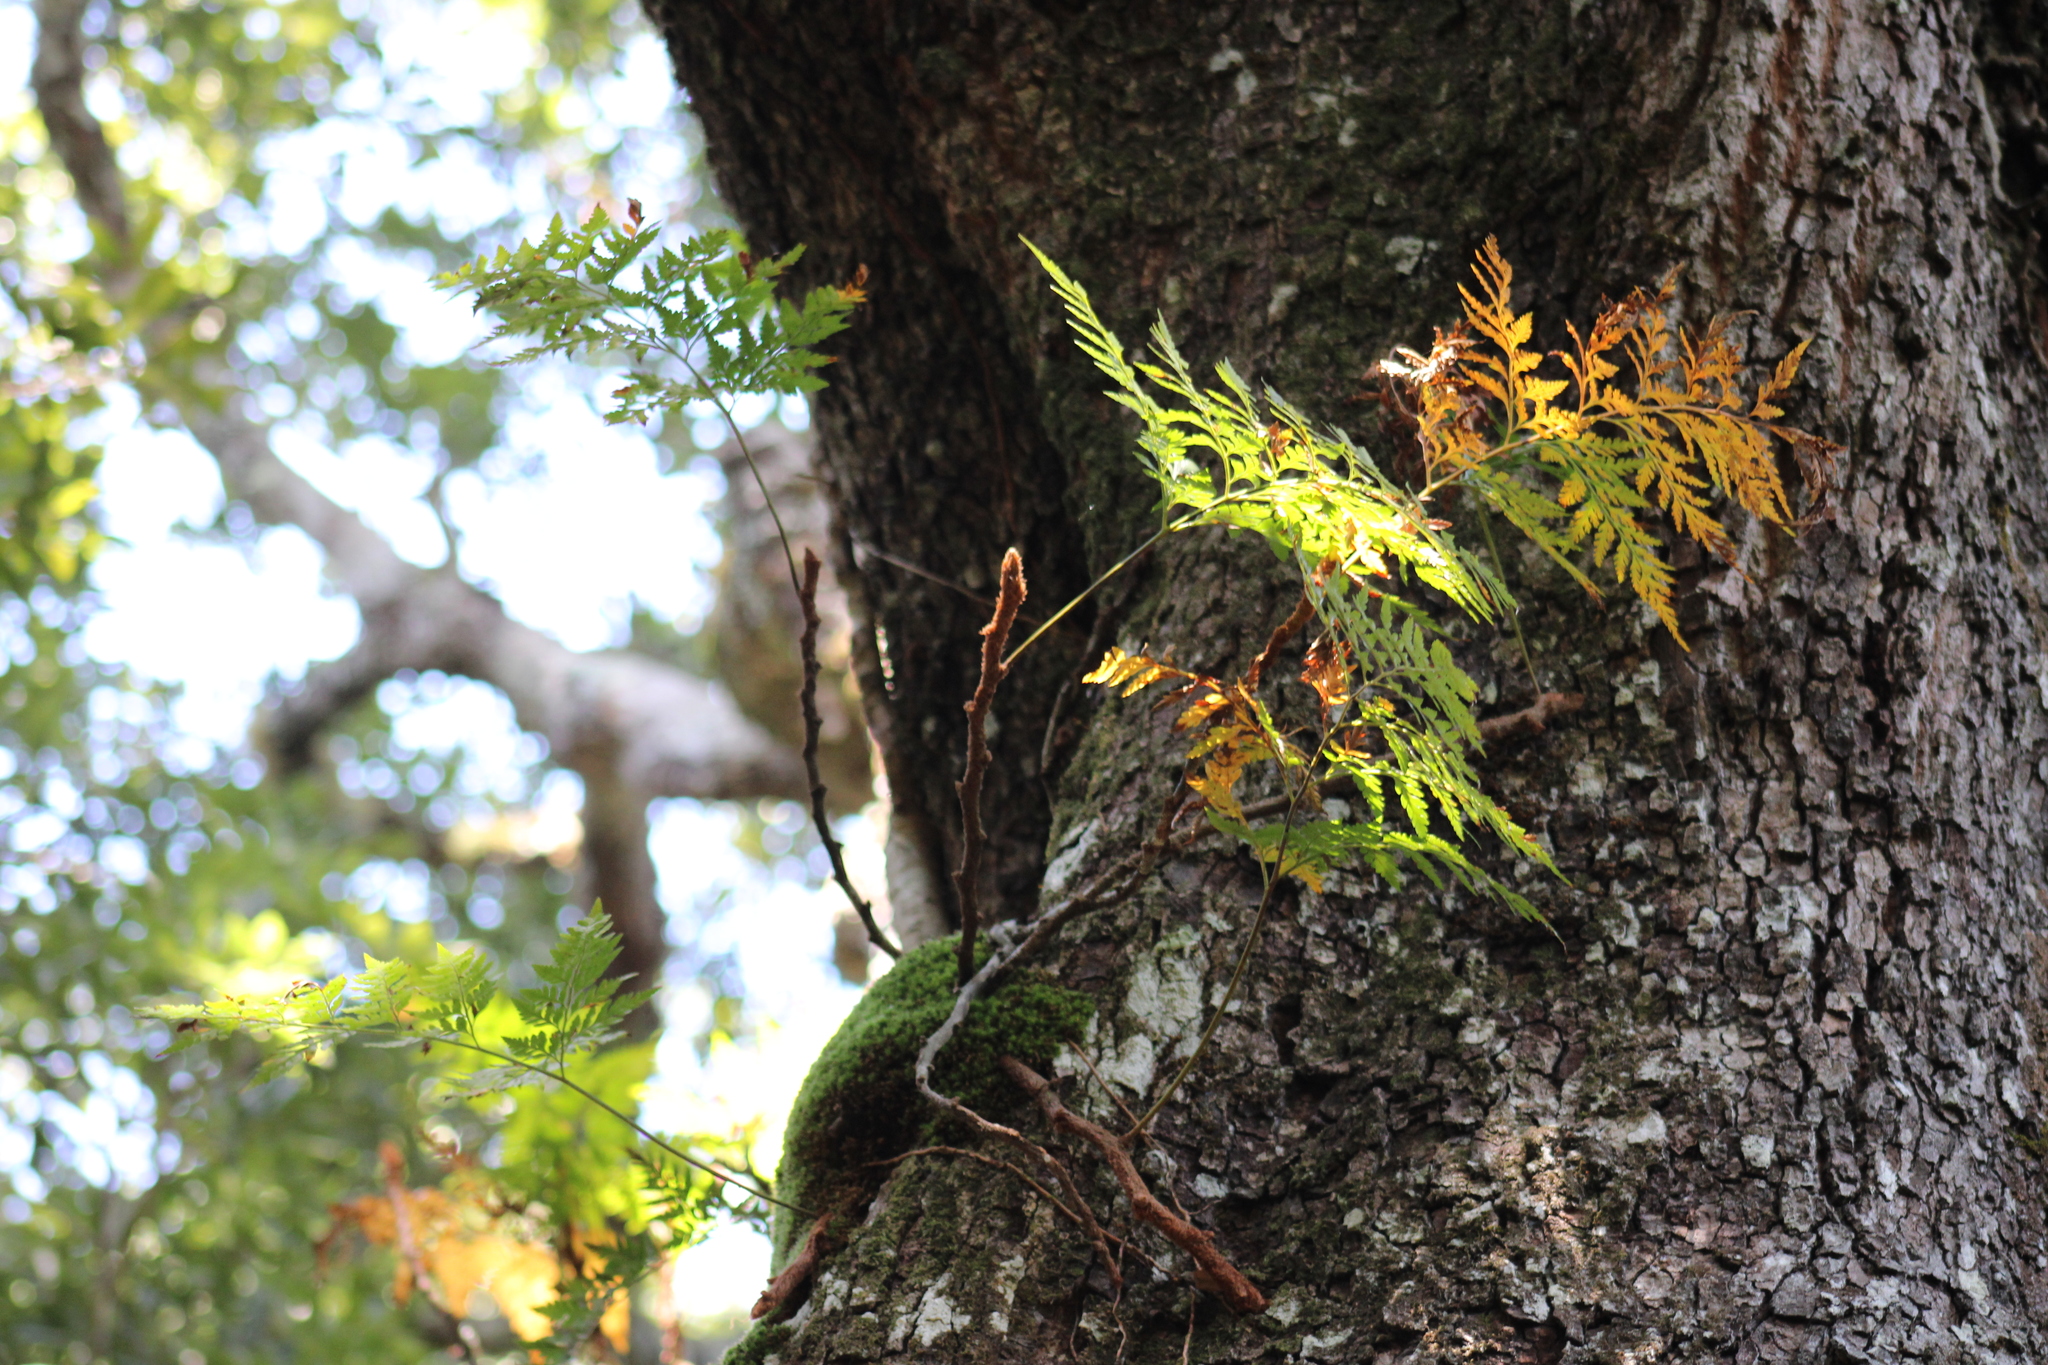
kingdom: Plantae
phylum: Tracheophyta
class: Polypodiopsida
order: Polypodiales
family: Davalliaceae
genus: Davallia
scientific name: Davallia pyxidata
